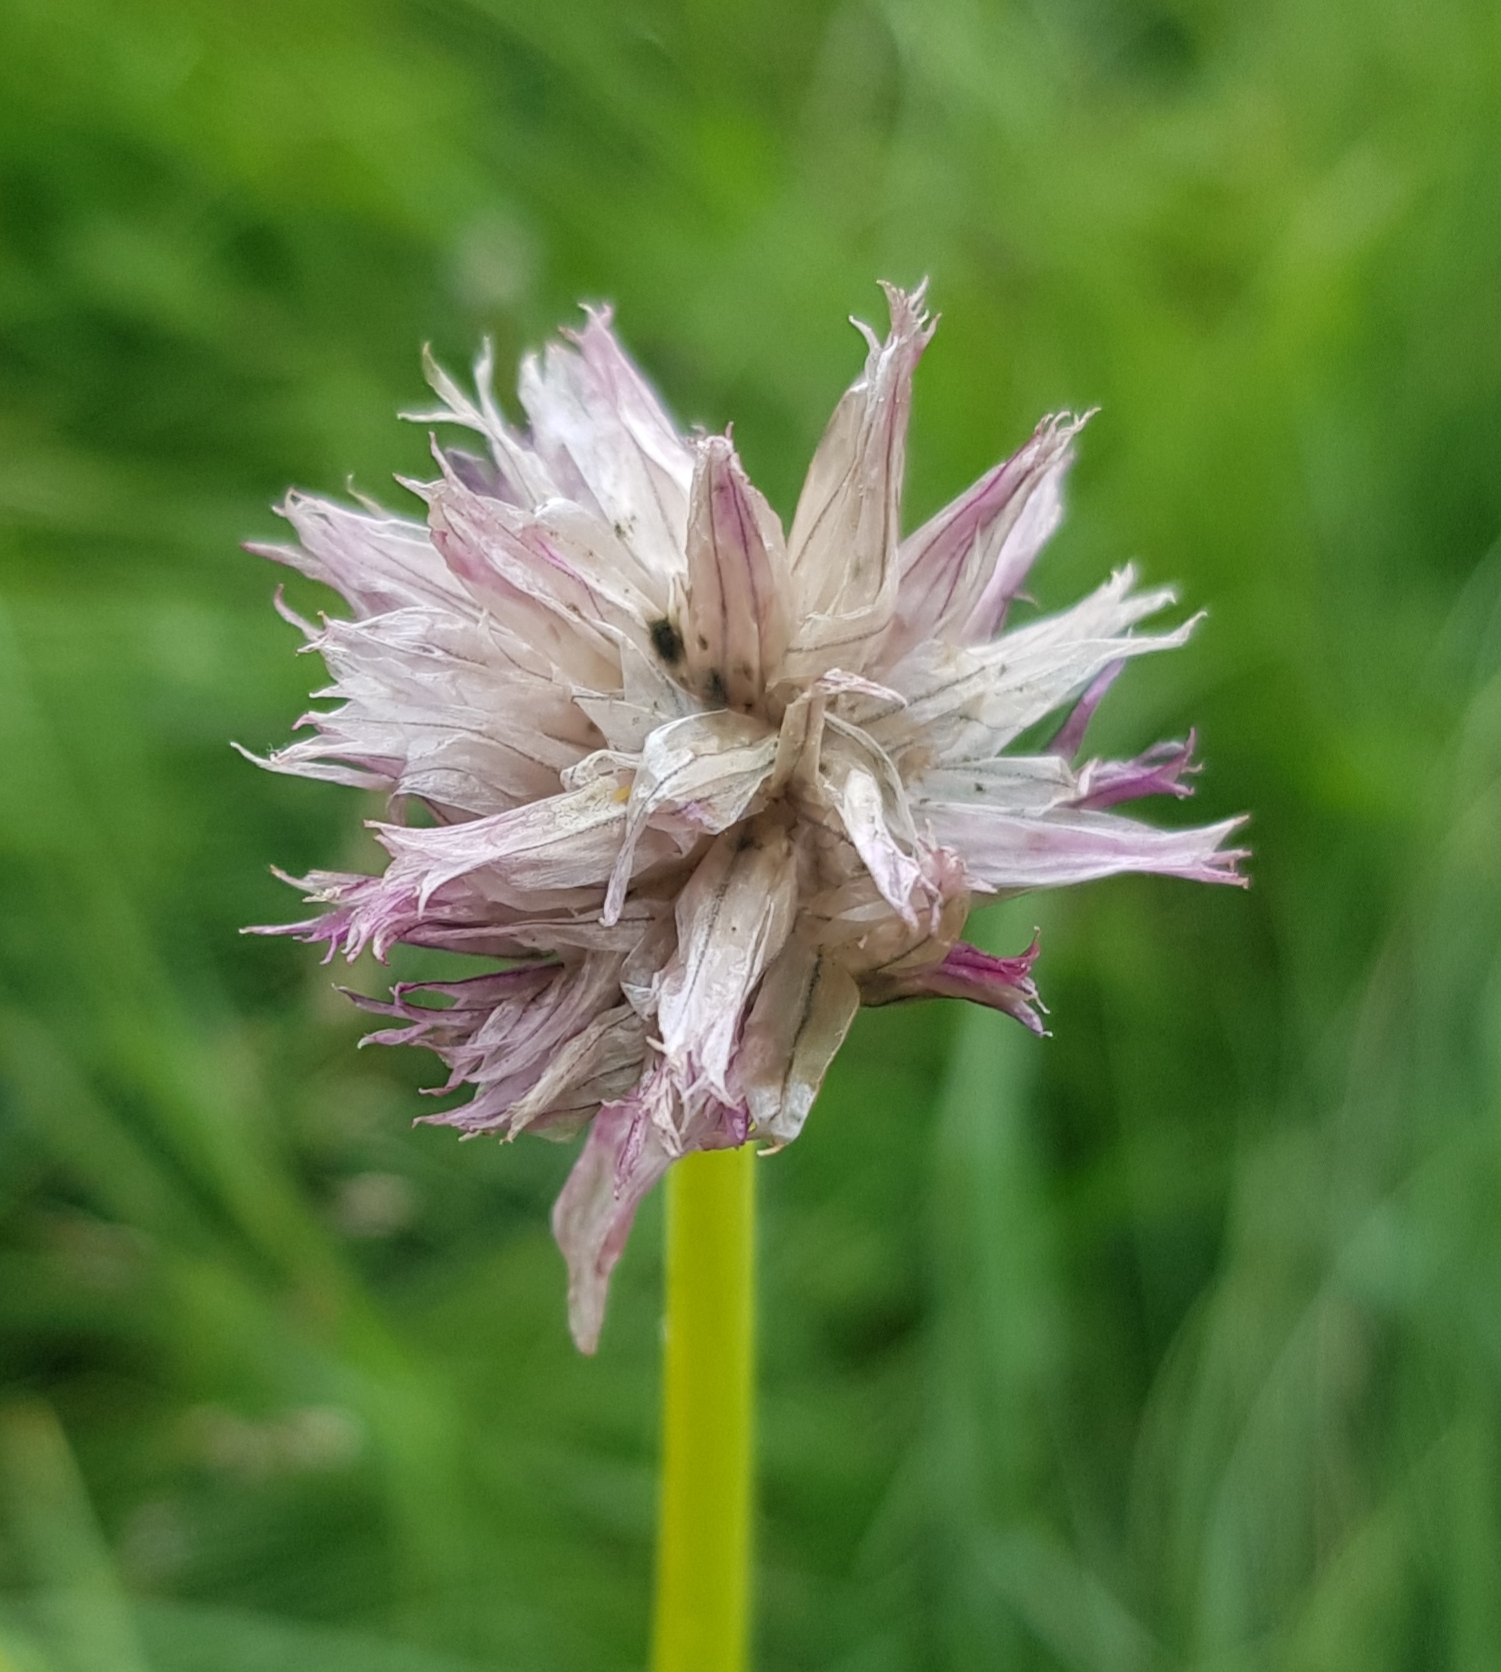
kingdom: Plantae
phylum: Tracheophyta
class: Liliopsida
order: Asparagales
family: Amaryllidaceae
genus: Allium
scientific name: Allium schoenoprasum
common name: Chives
